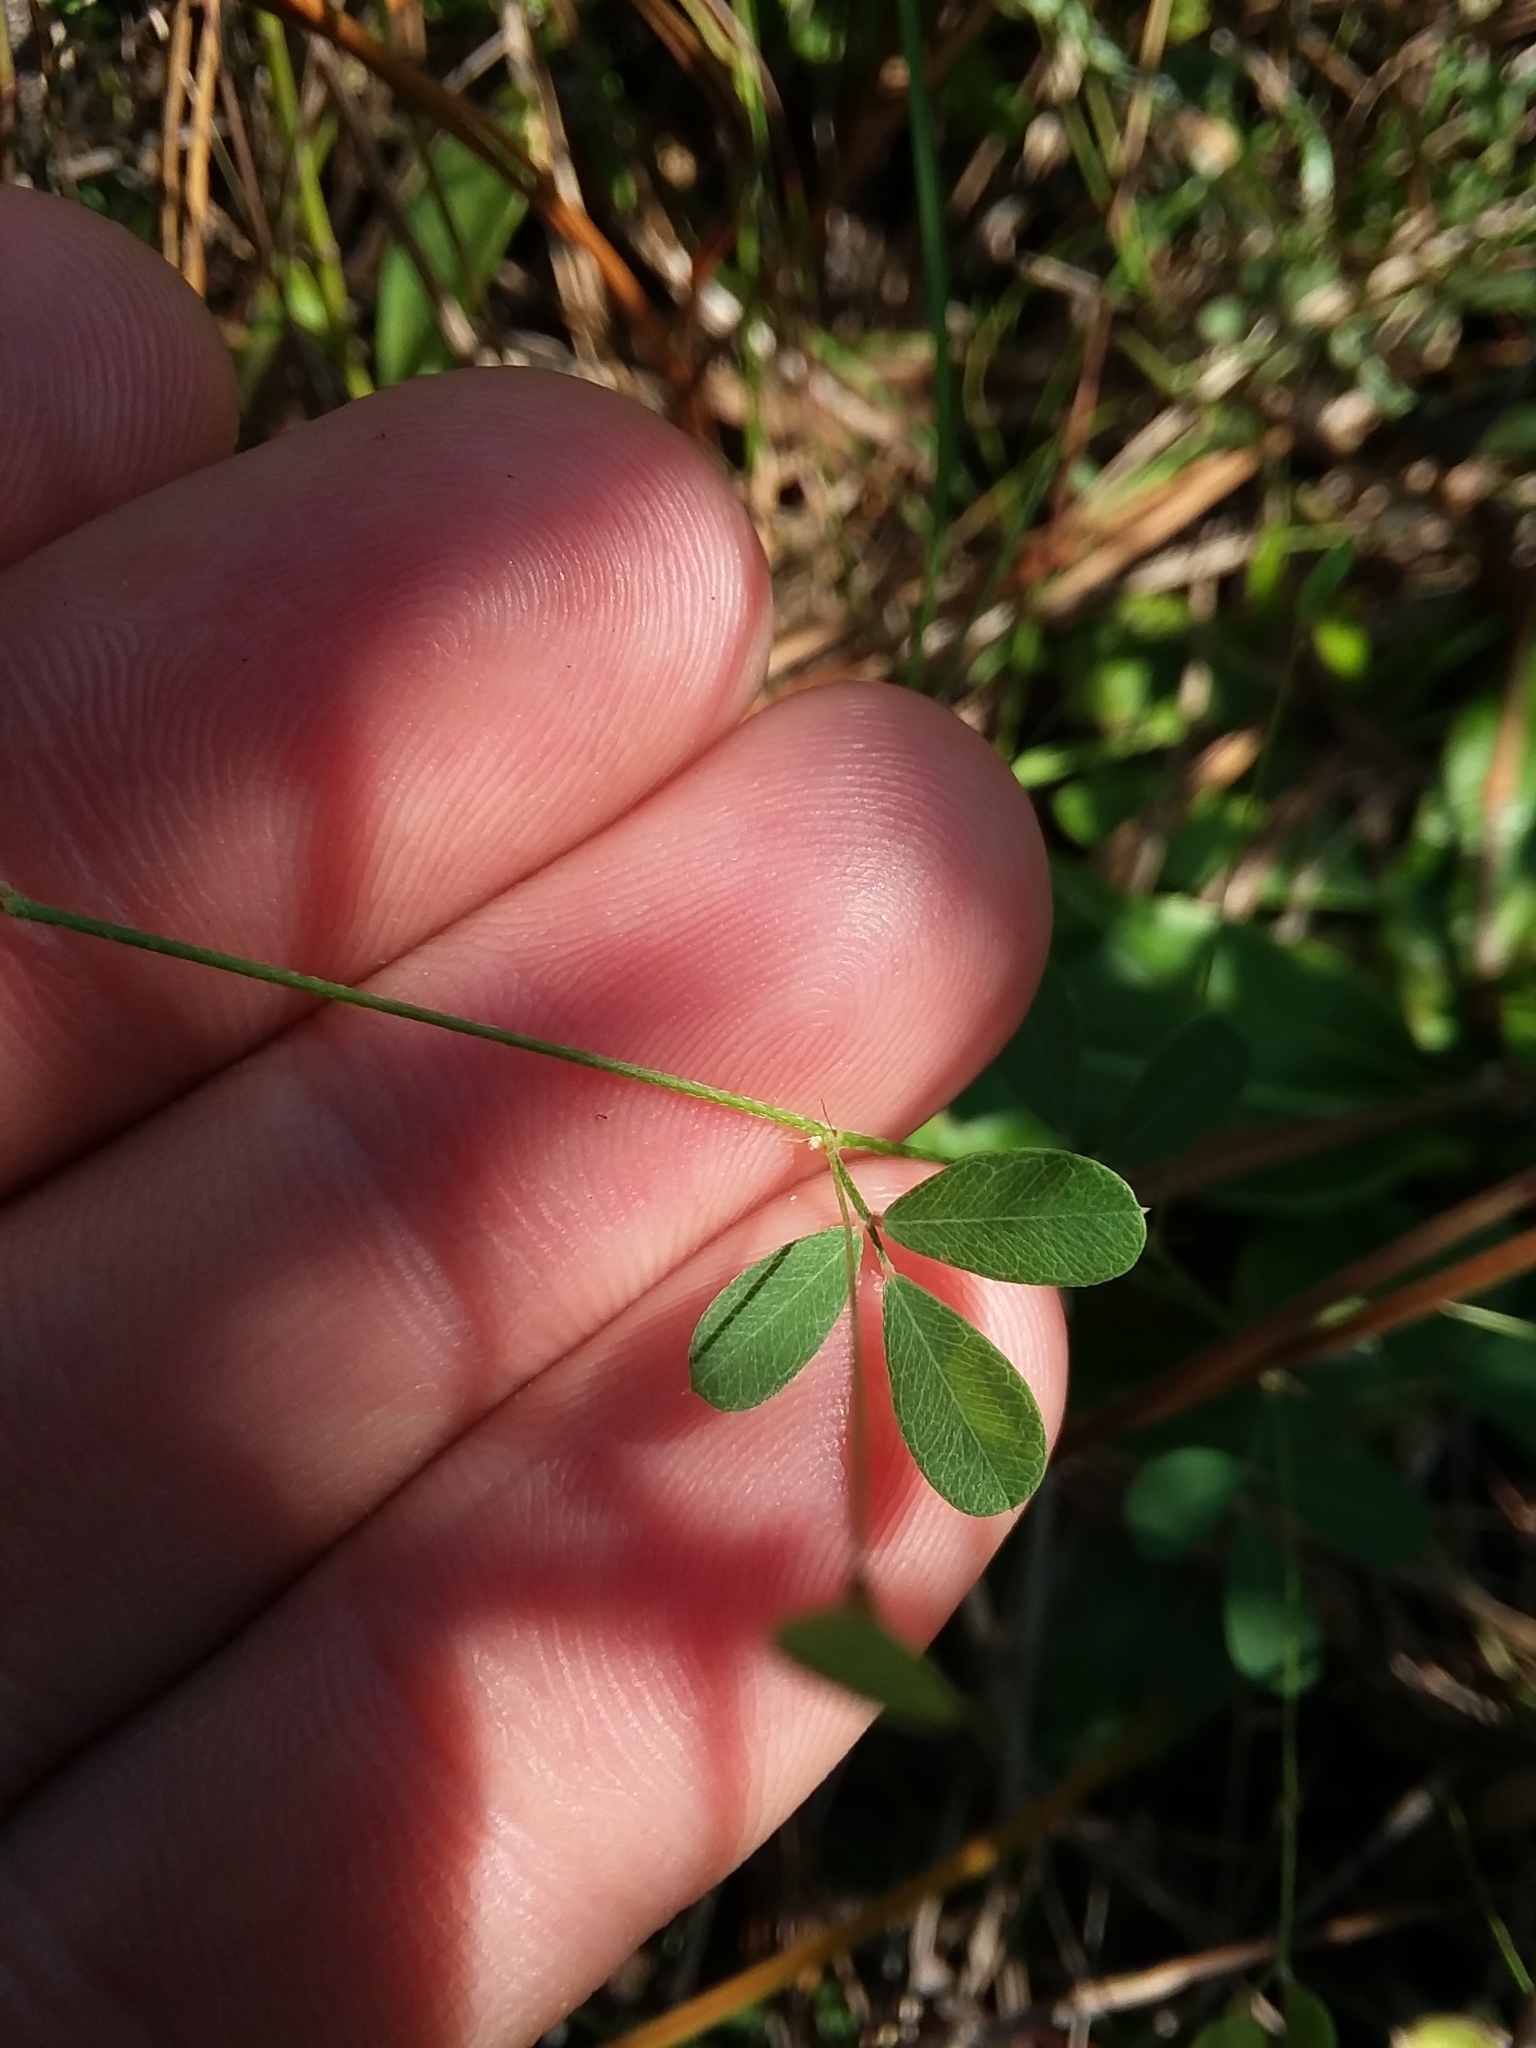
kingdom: Plantae
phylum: Tracheophyta
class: Magnoliopsida
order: Fabales
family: Fabaceae
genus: Lespedeza
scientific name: Lespedeza repens
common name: Creeping bush-clover
